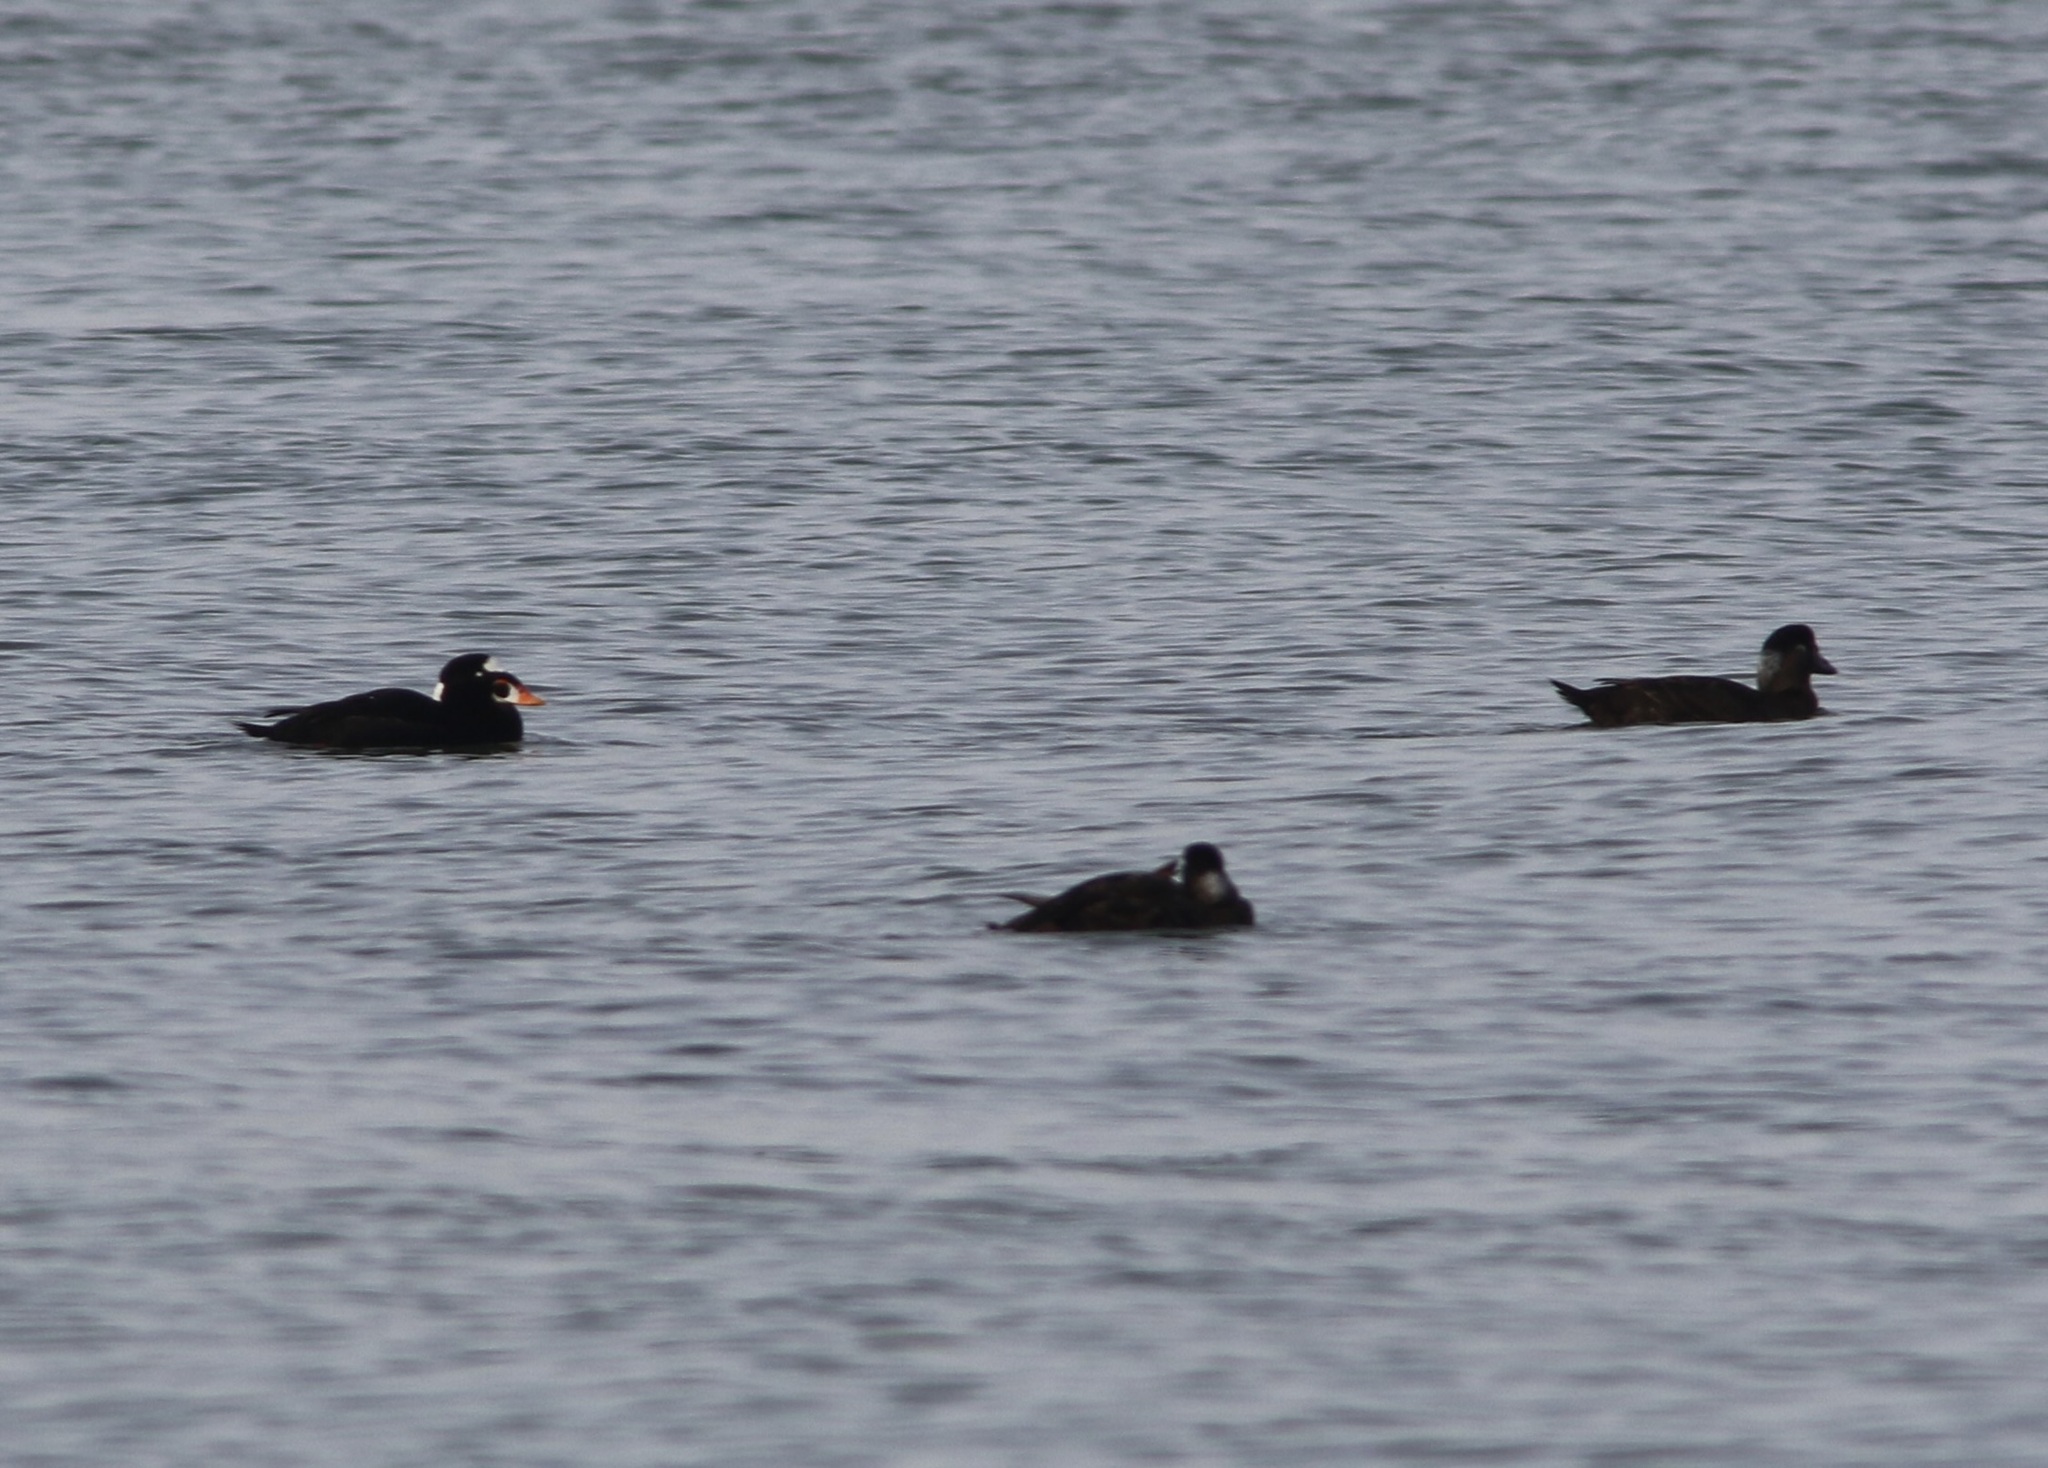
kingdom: Animalia
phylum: Chordata
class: Aves
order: Anseriformes
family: Anatidae
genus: Melanitta
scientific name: Melanitta perspicillata
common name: Surf scoter
